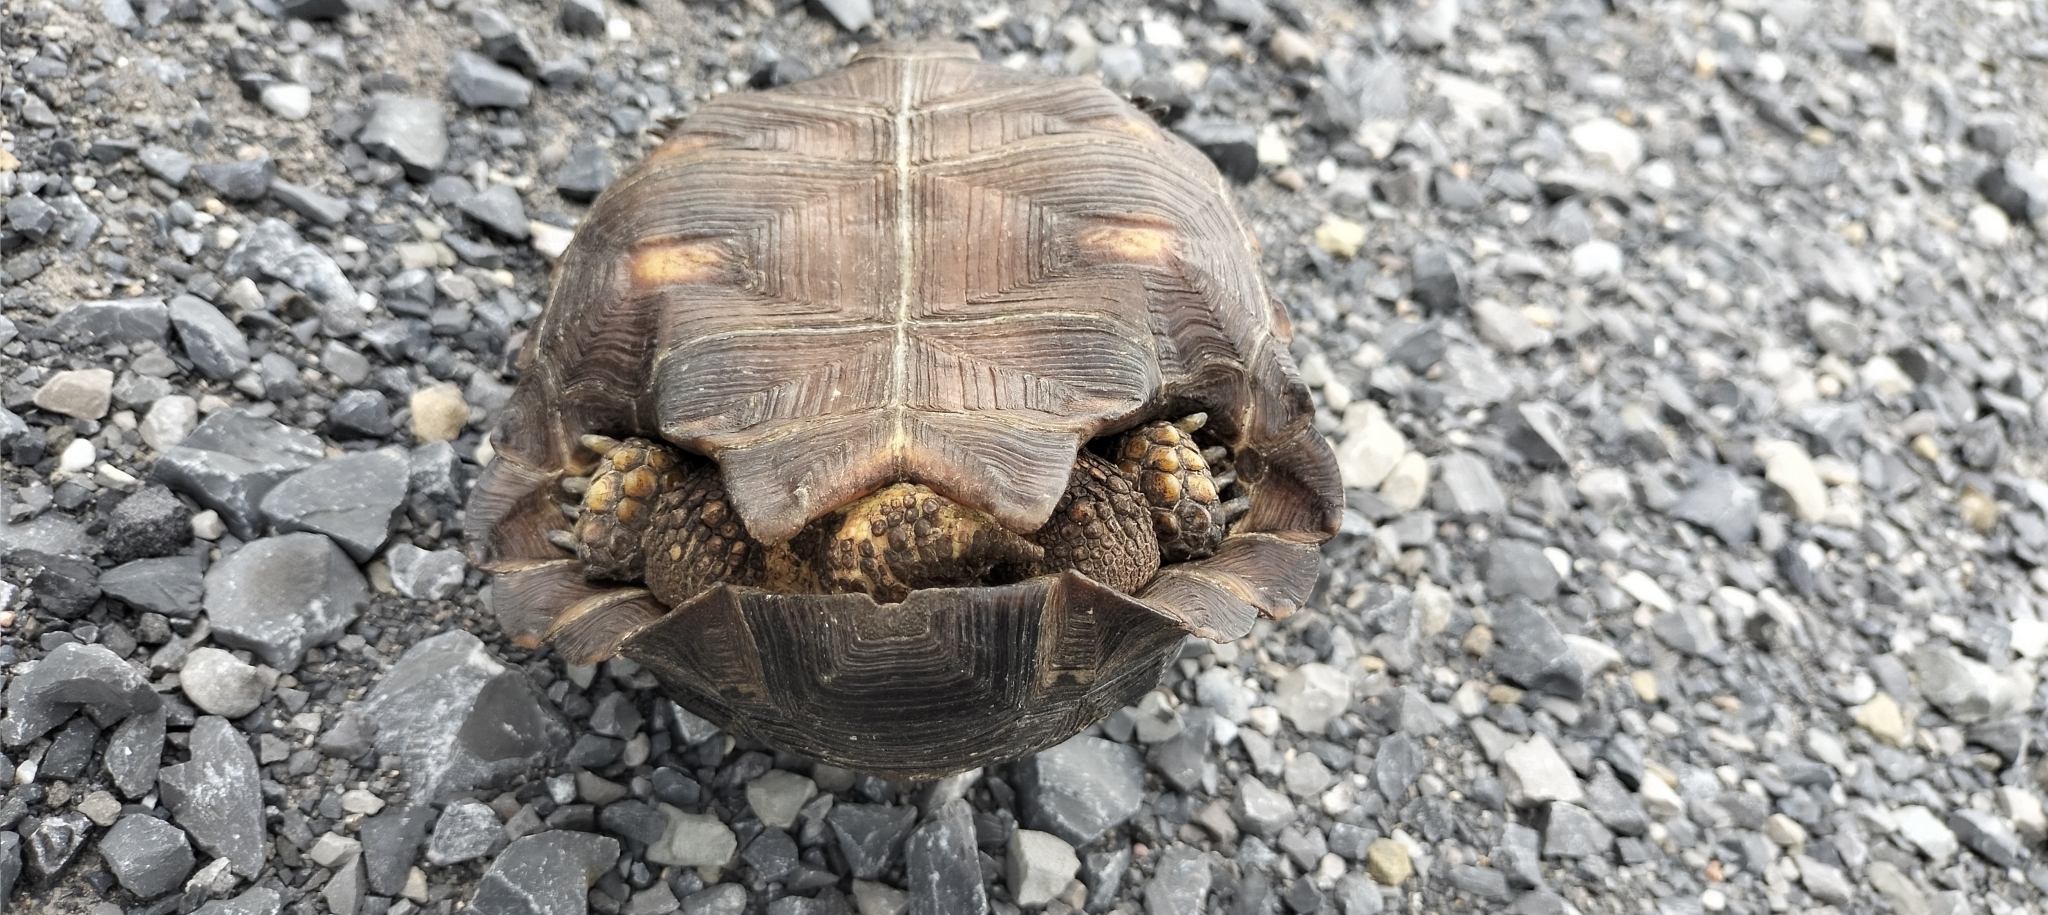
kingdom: Animalia
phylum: Chordata
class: Testudines
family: Testudinidae
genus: Gopherus
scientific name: Gopherus berlandieri
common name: Texas (gopher )tortoise
